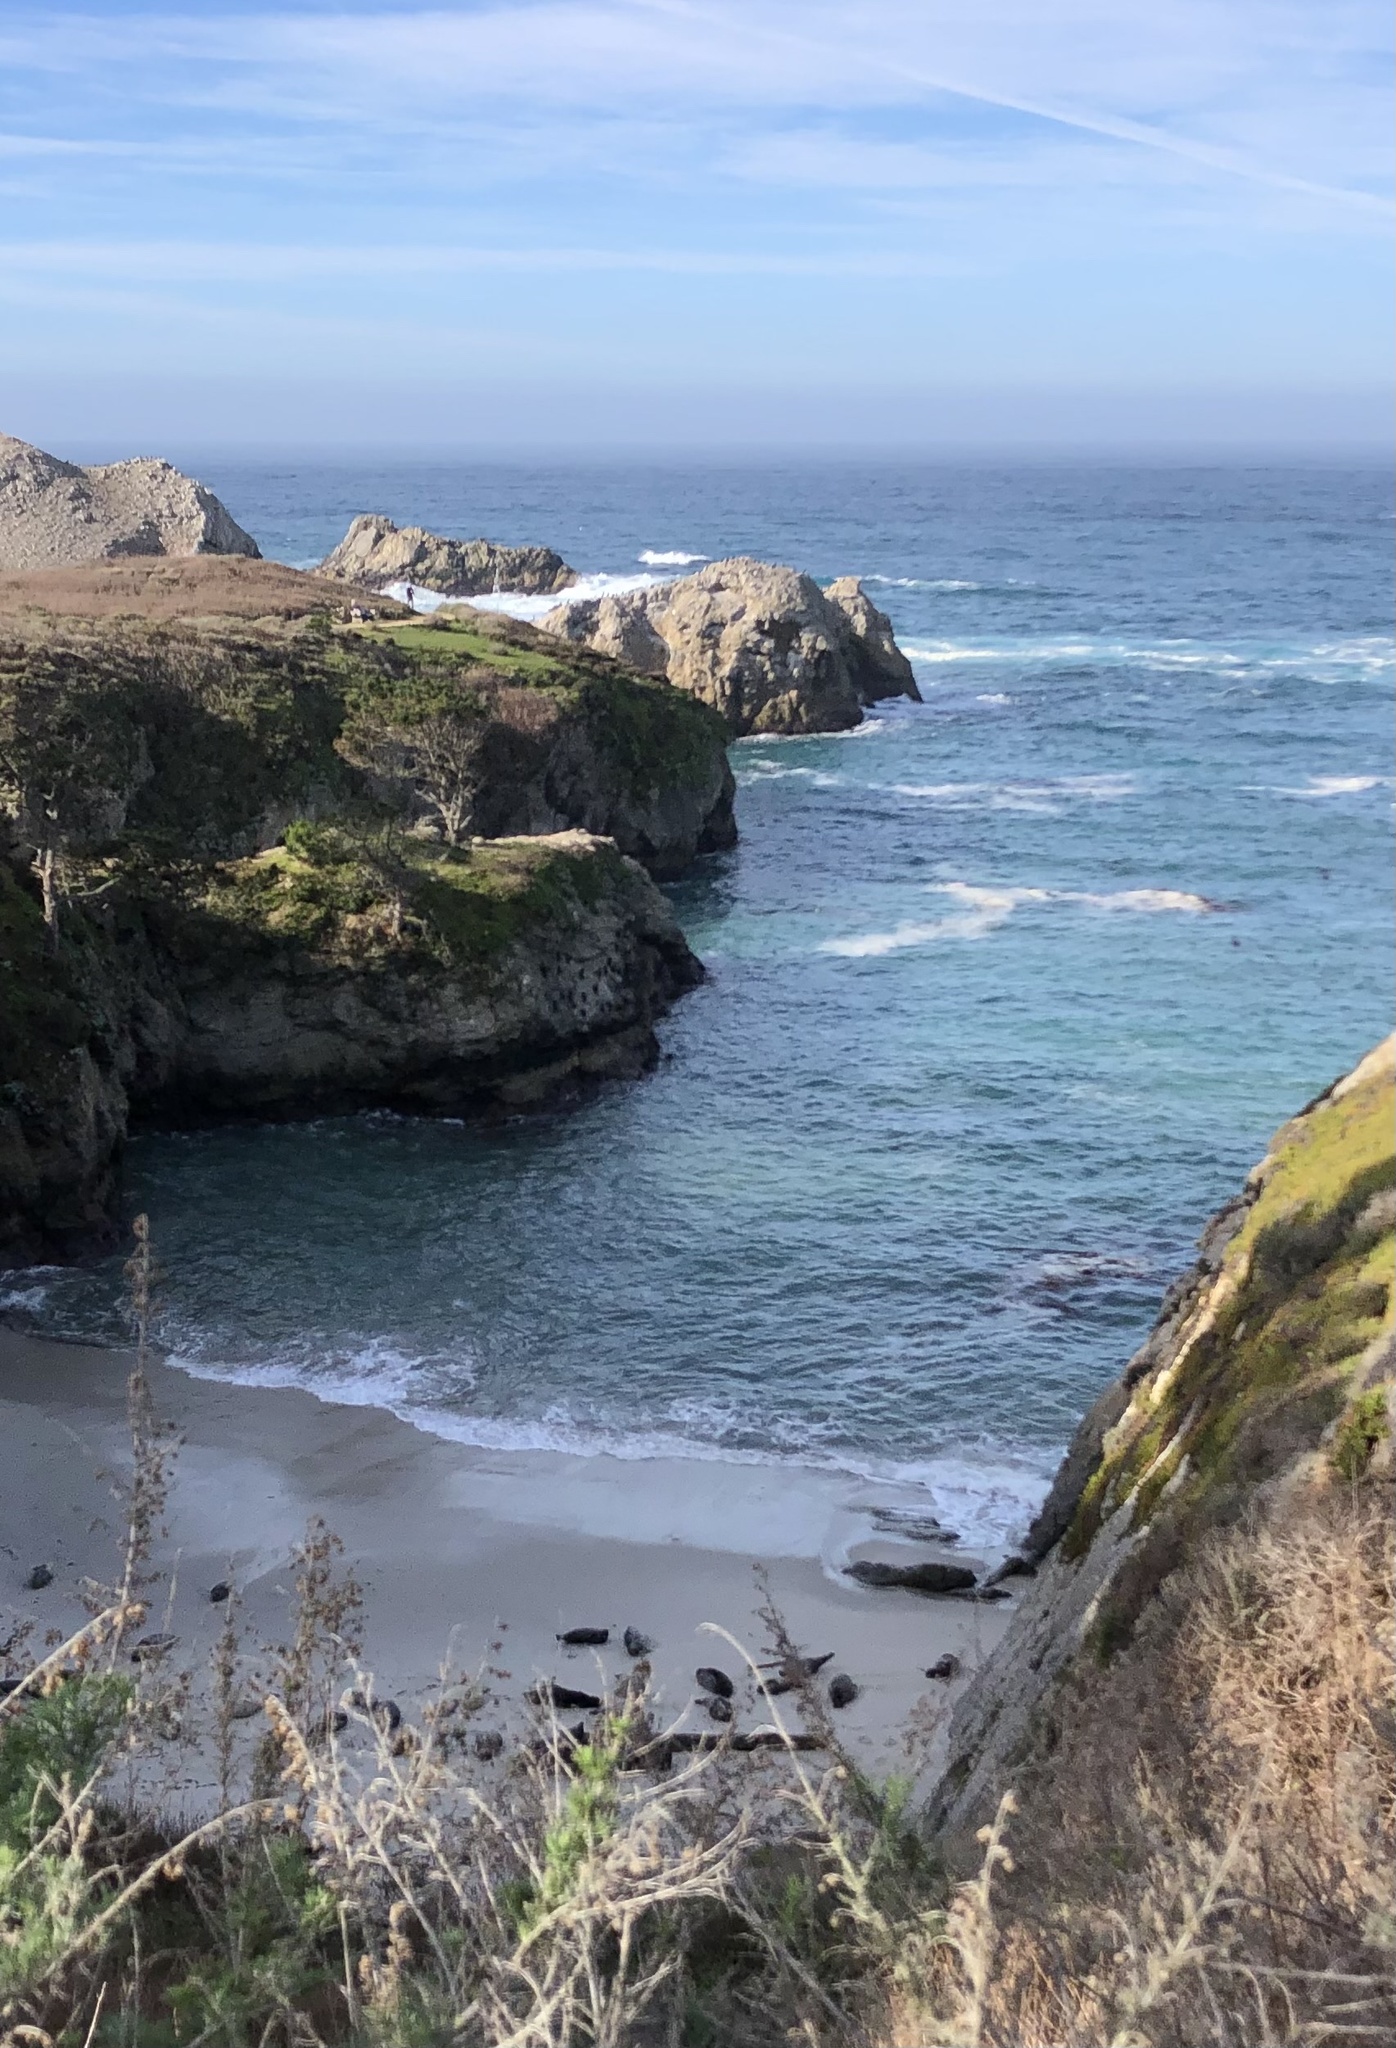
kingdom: Animalia
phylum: Chordata
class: Mammalia
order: Carnivora
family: Phocidae
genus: Phoca
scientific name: Phoca vitulina
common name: Harbor seal
